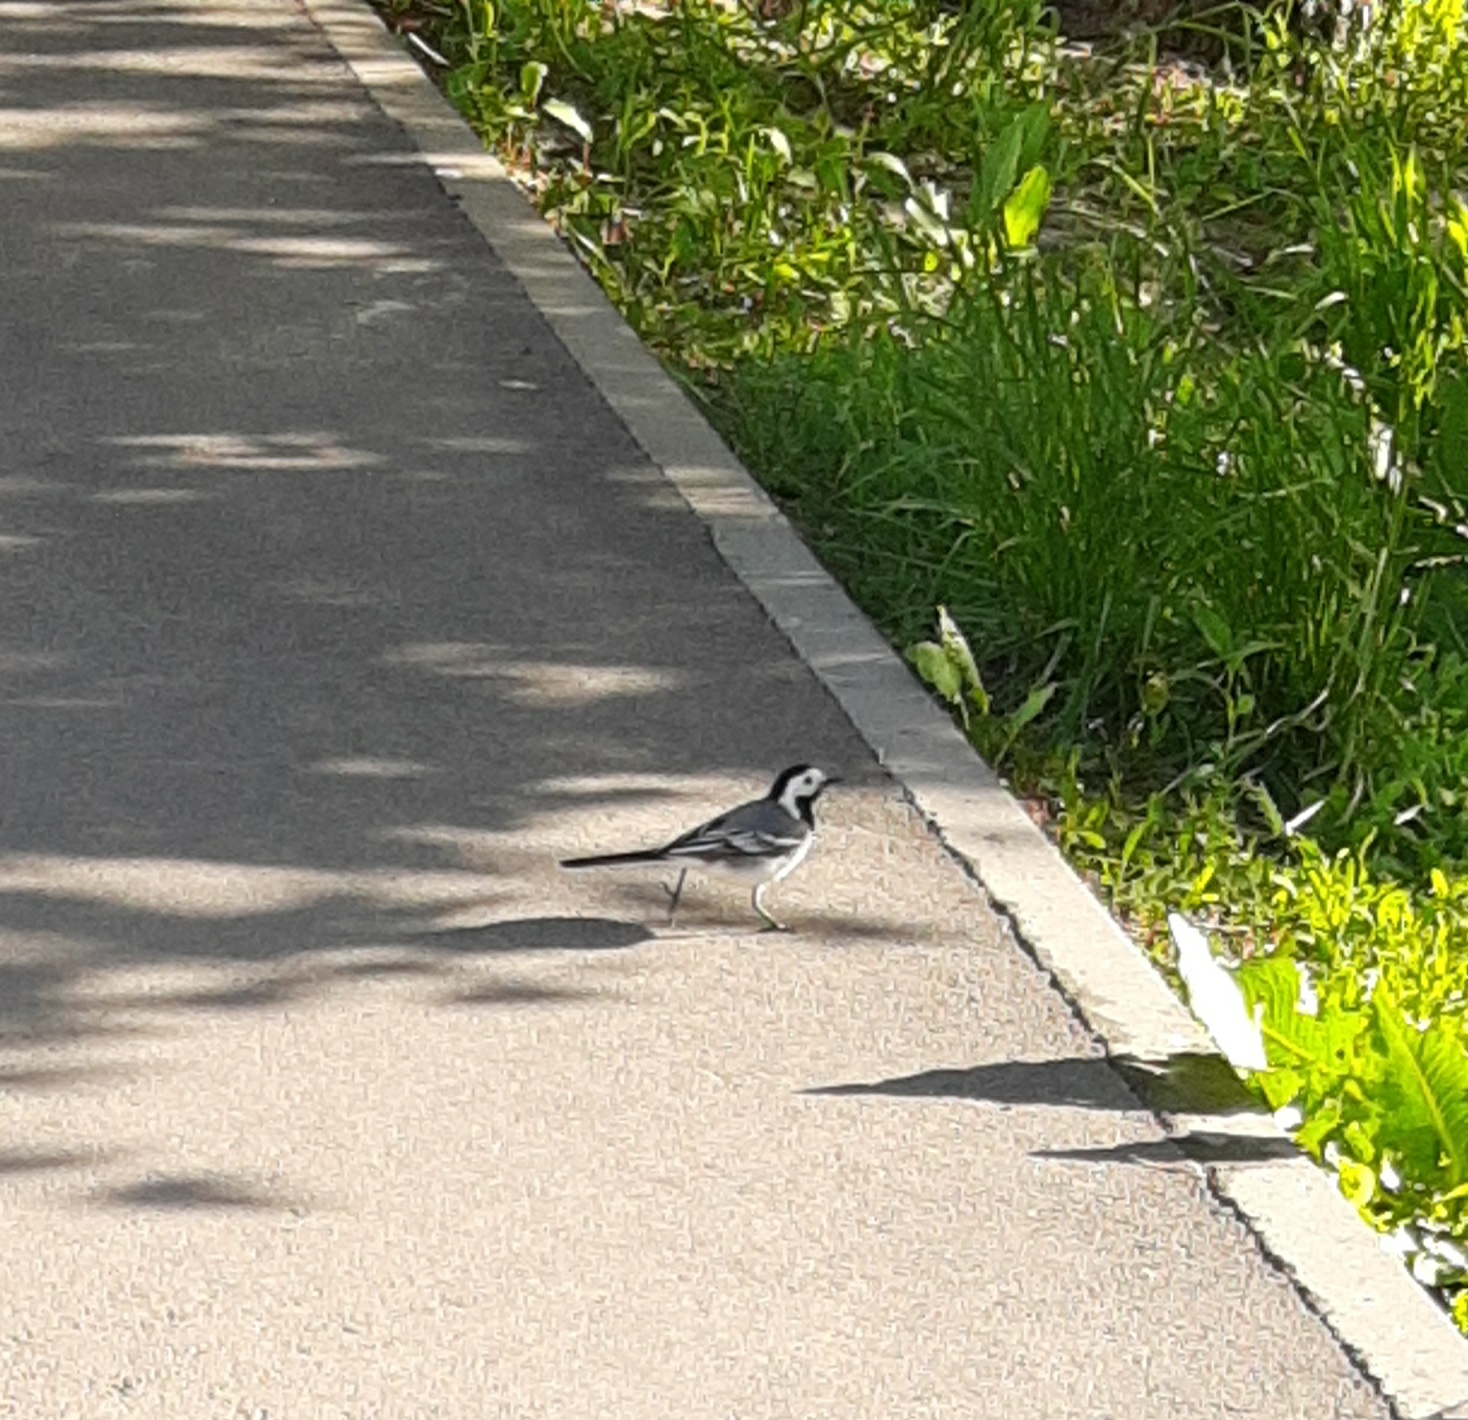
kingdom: Animalia
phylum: Chordata
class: Aves
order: Passeriformes
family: Motacillidae
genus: Motacilla
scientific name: Motacilla alba
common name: White wagtail
